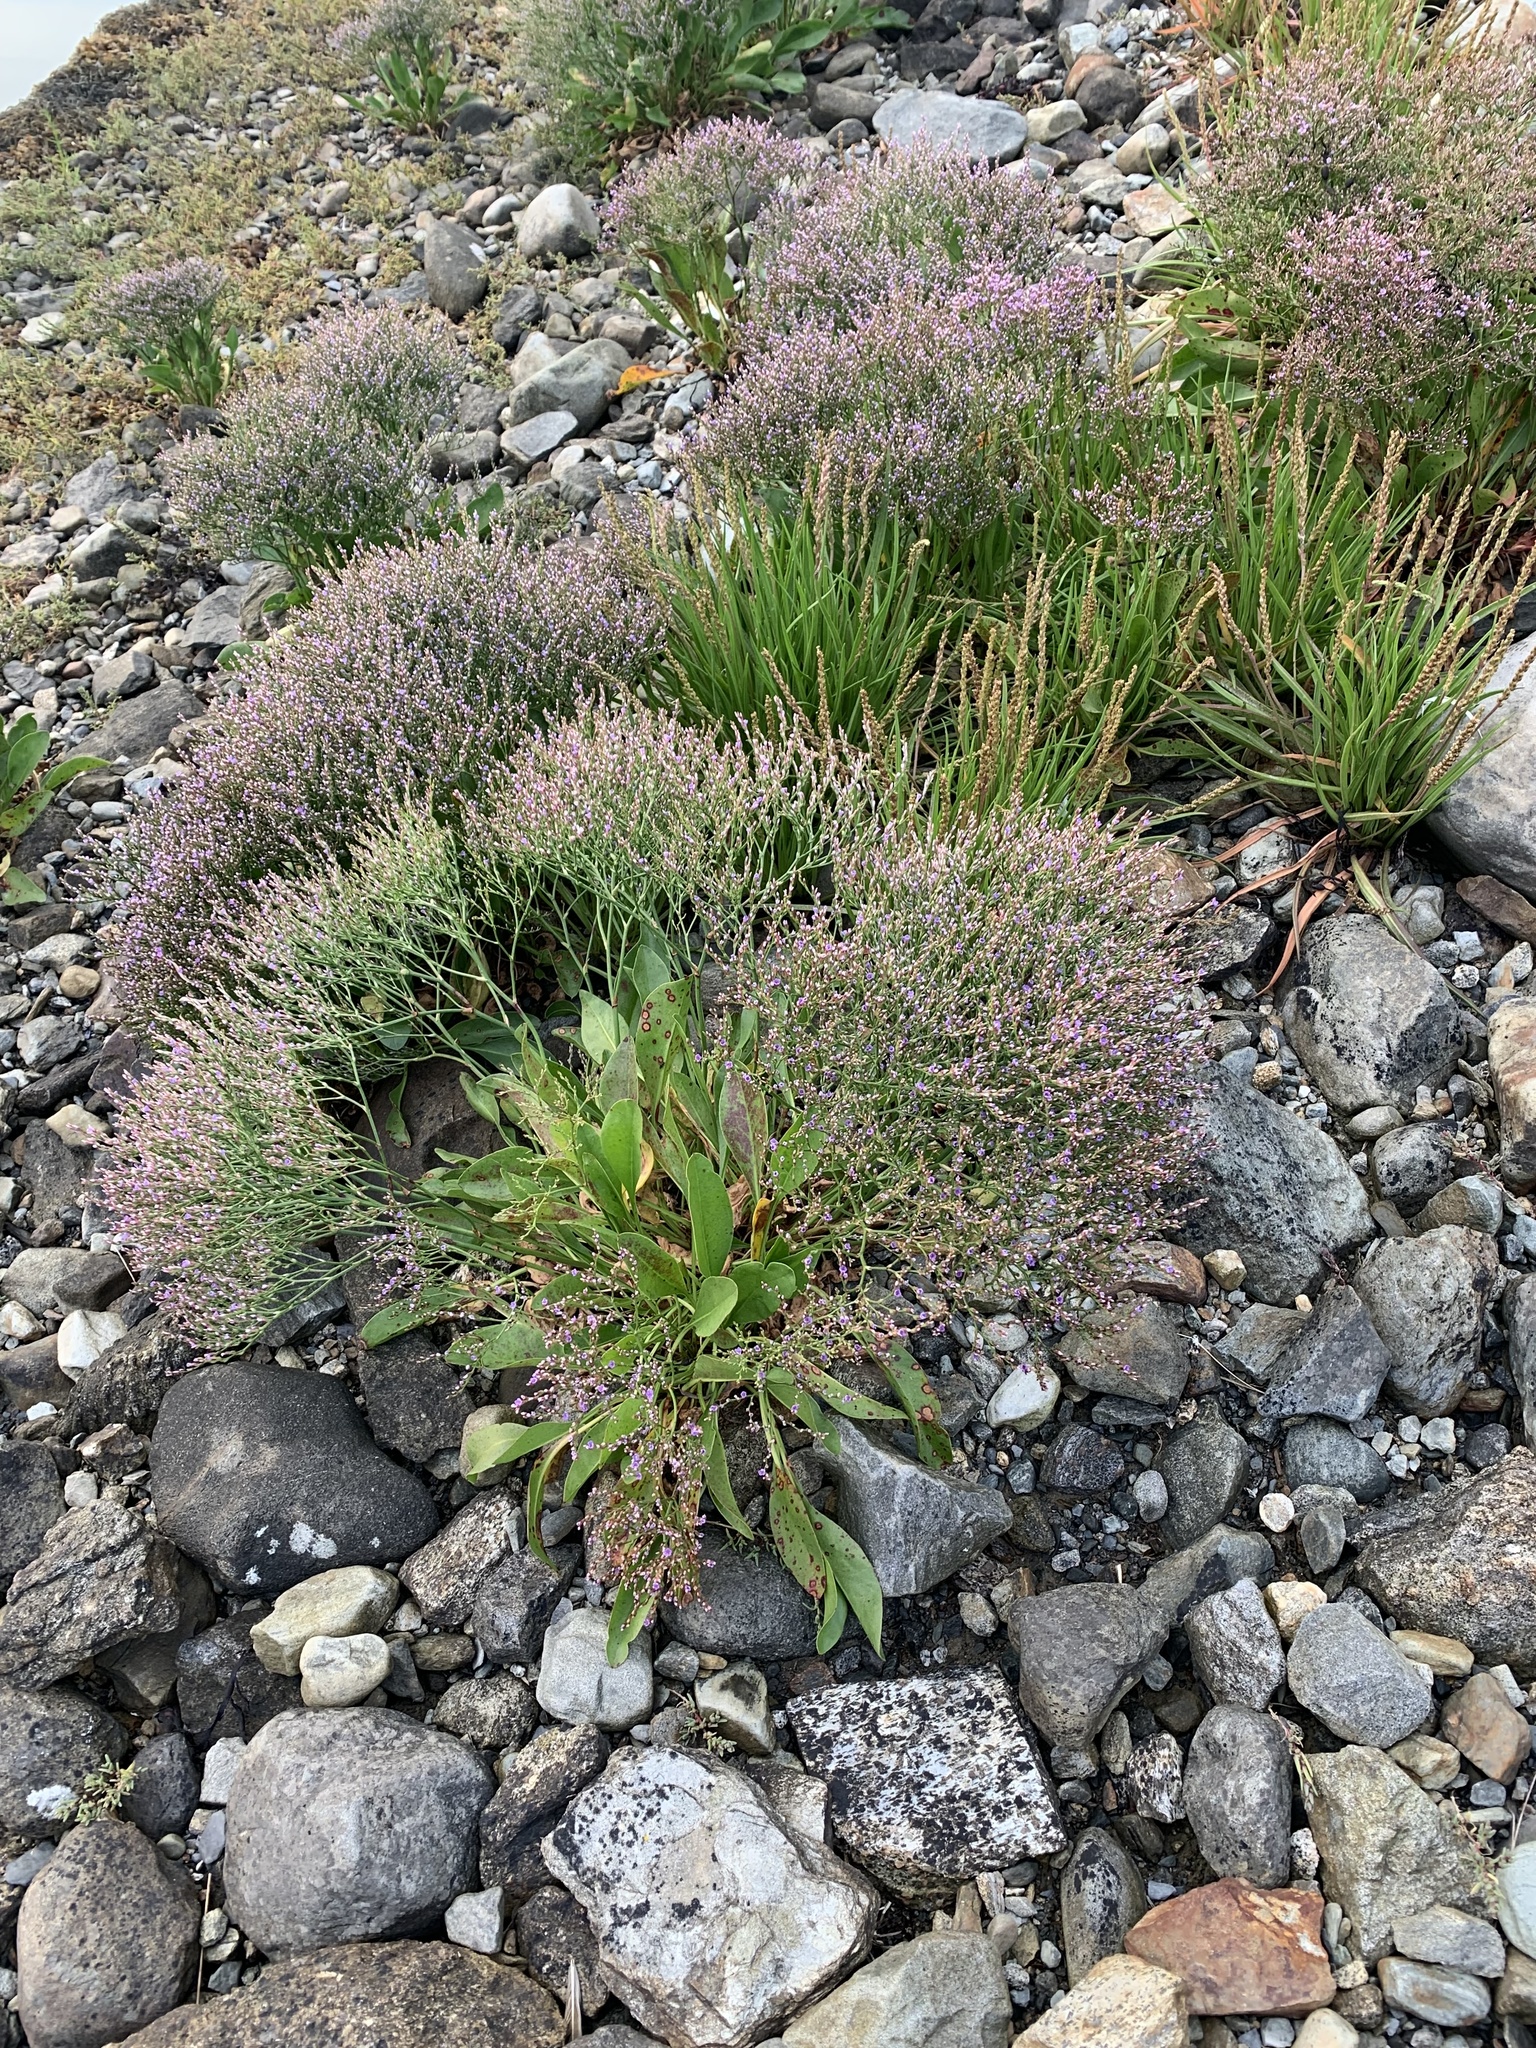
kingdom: Plantae
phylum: Tracheophyta
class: Magnoliopsida
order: Caryophyllales
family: Plumbaginaceae
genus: Limonium
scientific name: Limonium carolinianum
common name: Carolina sea lavender
